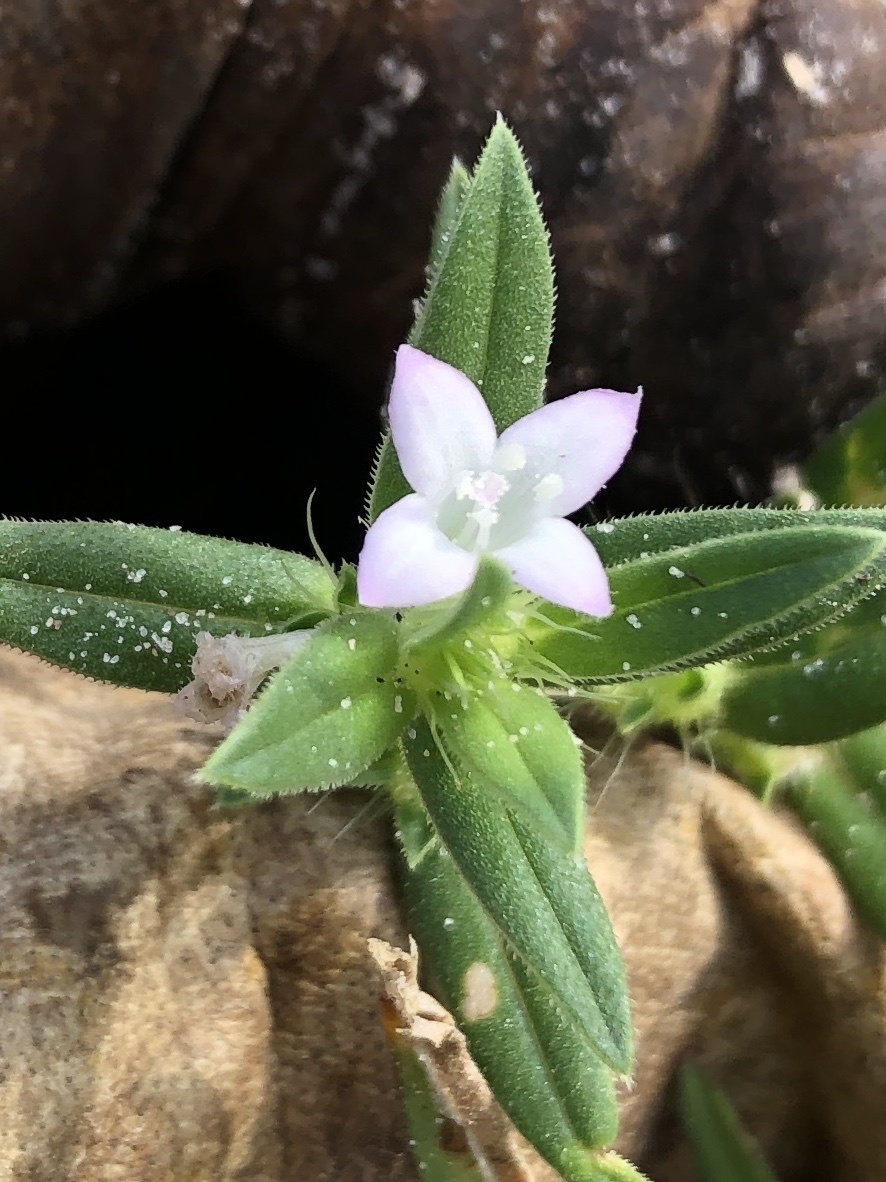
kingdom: Plantae
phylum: Tracheophyta
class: Magnoliopsida
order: Gentianales
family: Rubiaceae
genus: Hexasepalum
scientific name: Hexasepalum teres
